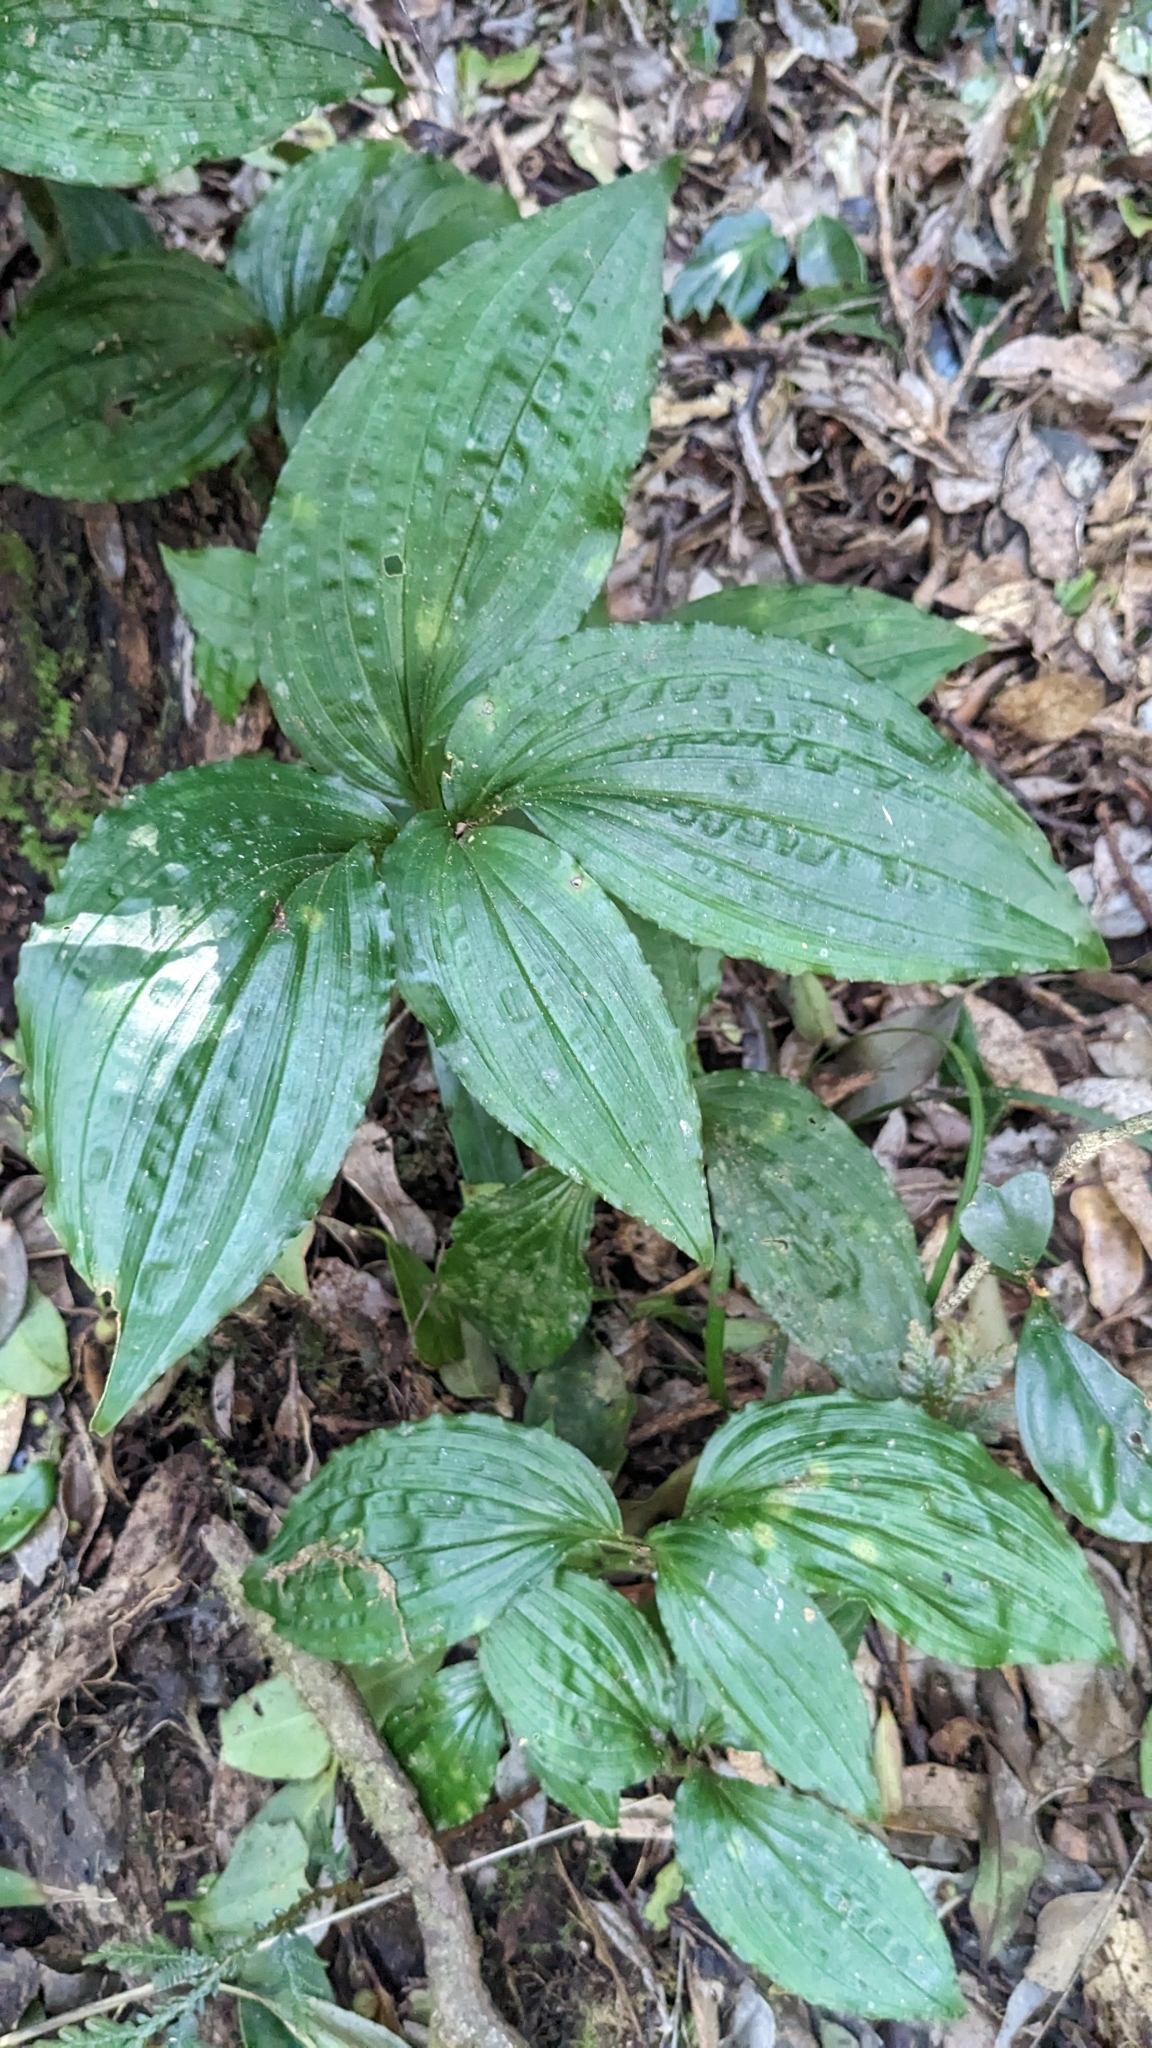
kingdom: Plantae
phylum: Tracheophyta
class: Liliopsida
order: Asparagales
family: Orchidaceae
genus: Liparis
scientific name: Liparis gigantea
